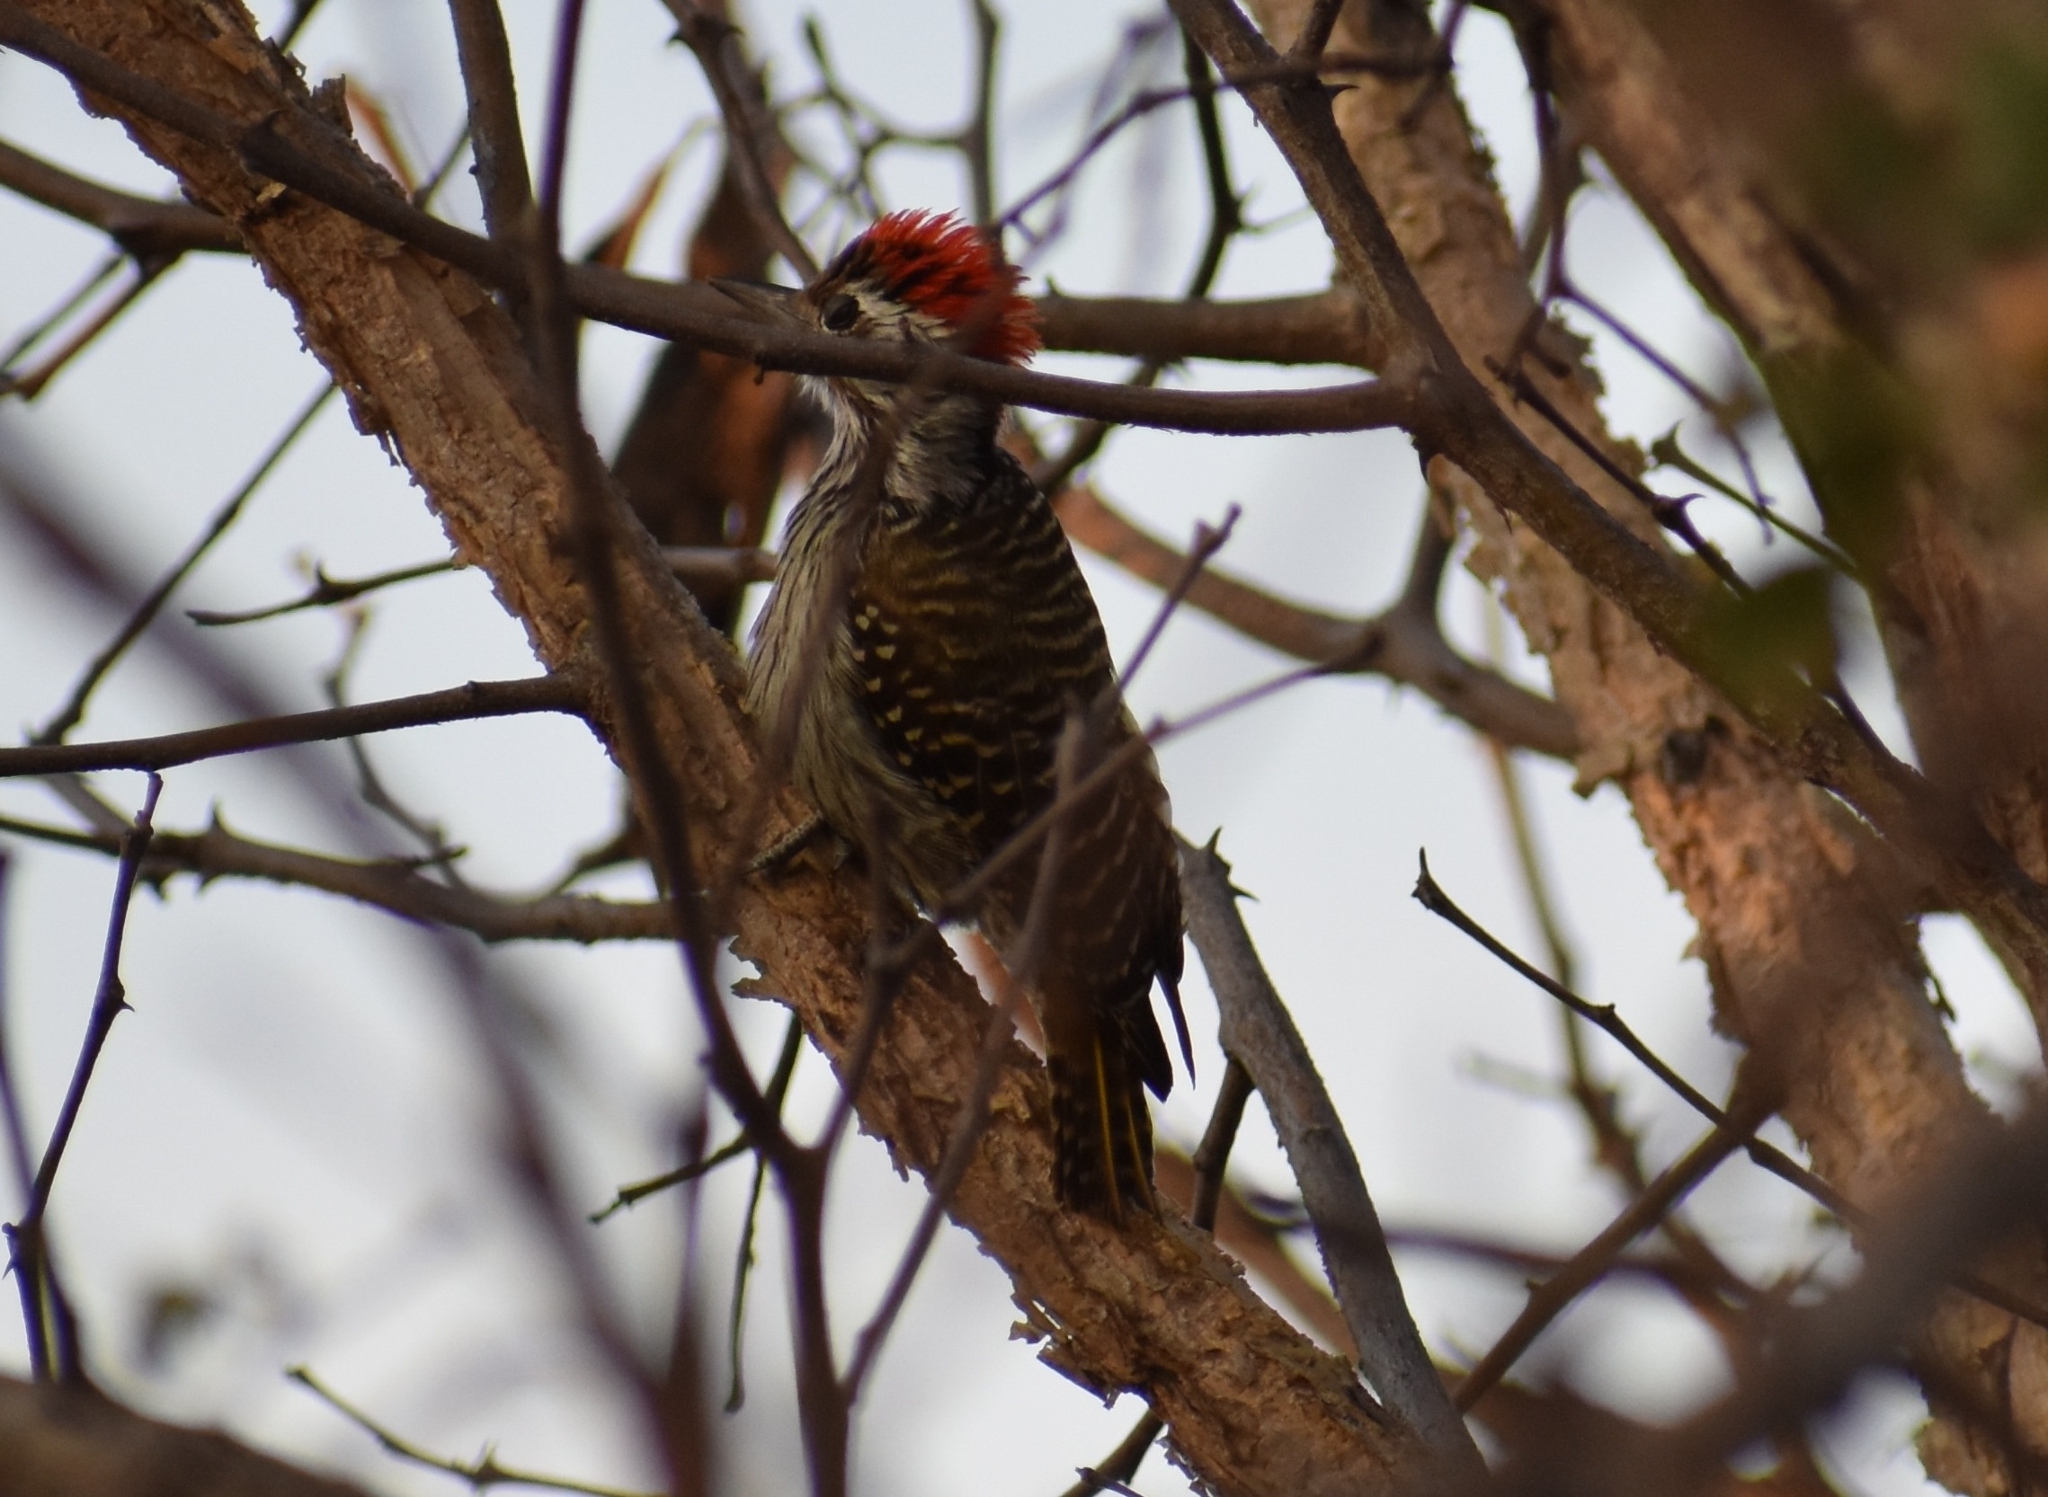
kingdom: Animalia
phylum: Chordata
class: Aves
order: Piciformes
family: Picidae
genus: Dendropicos
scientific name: Dendropicos fuscescens
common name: Cardinal woodpecker
